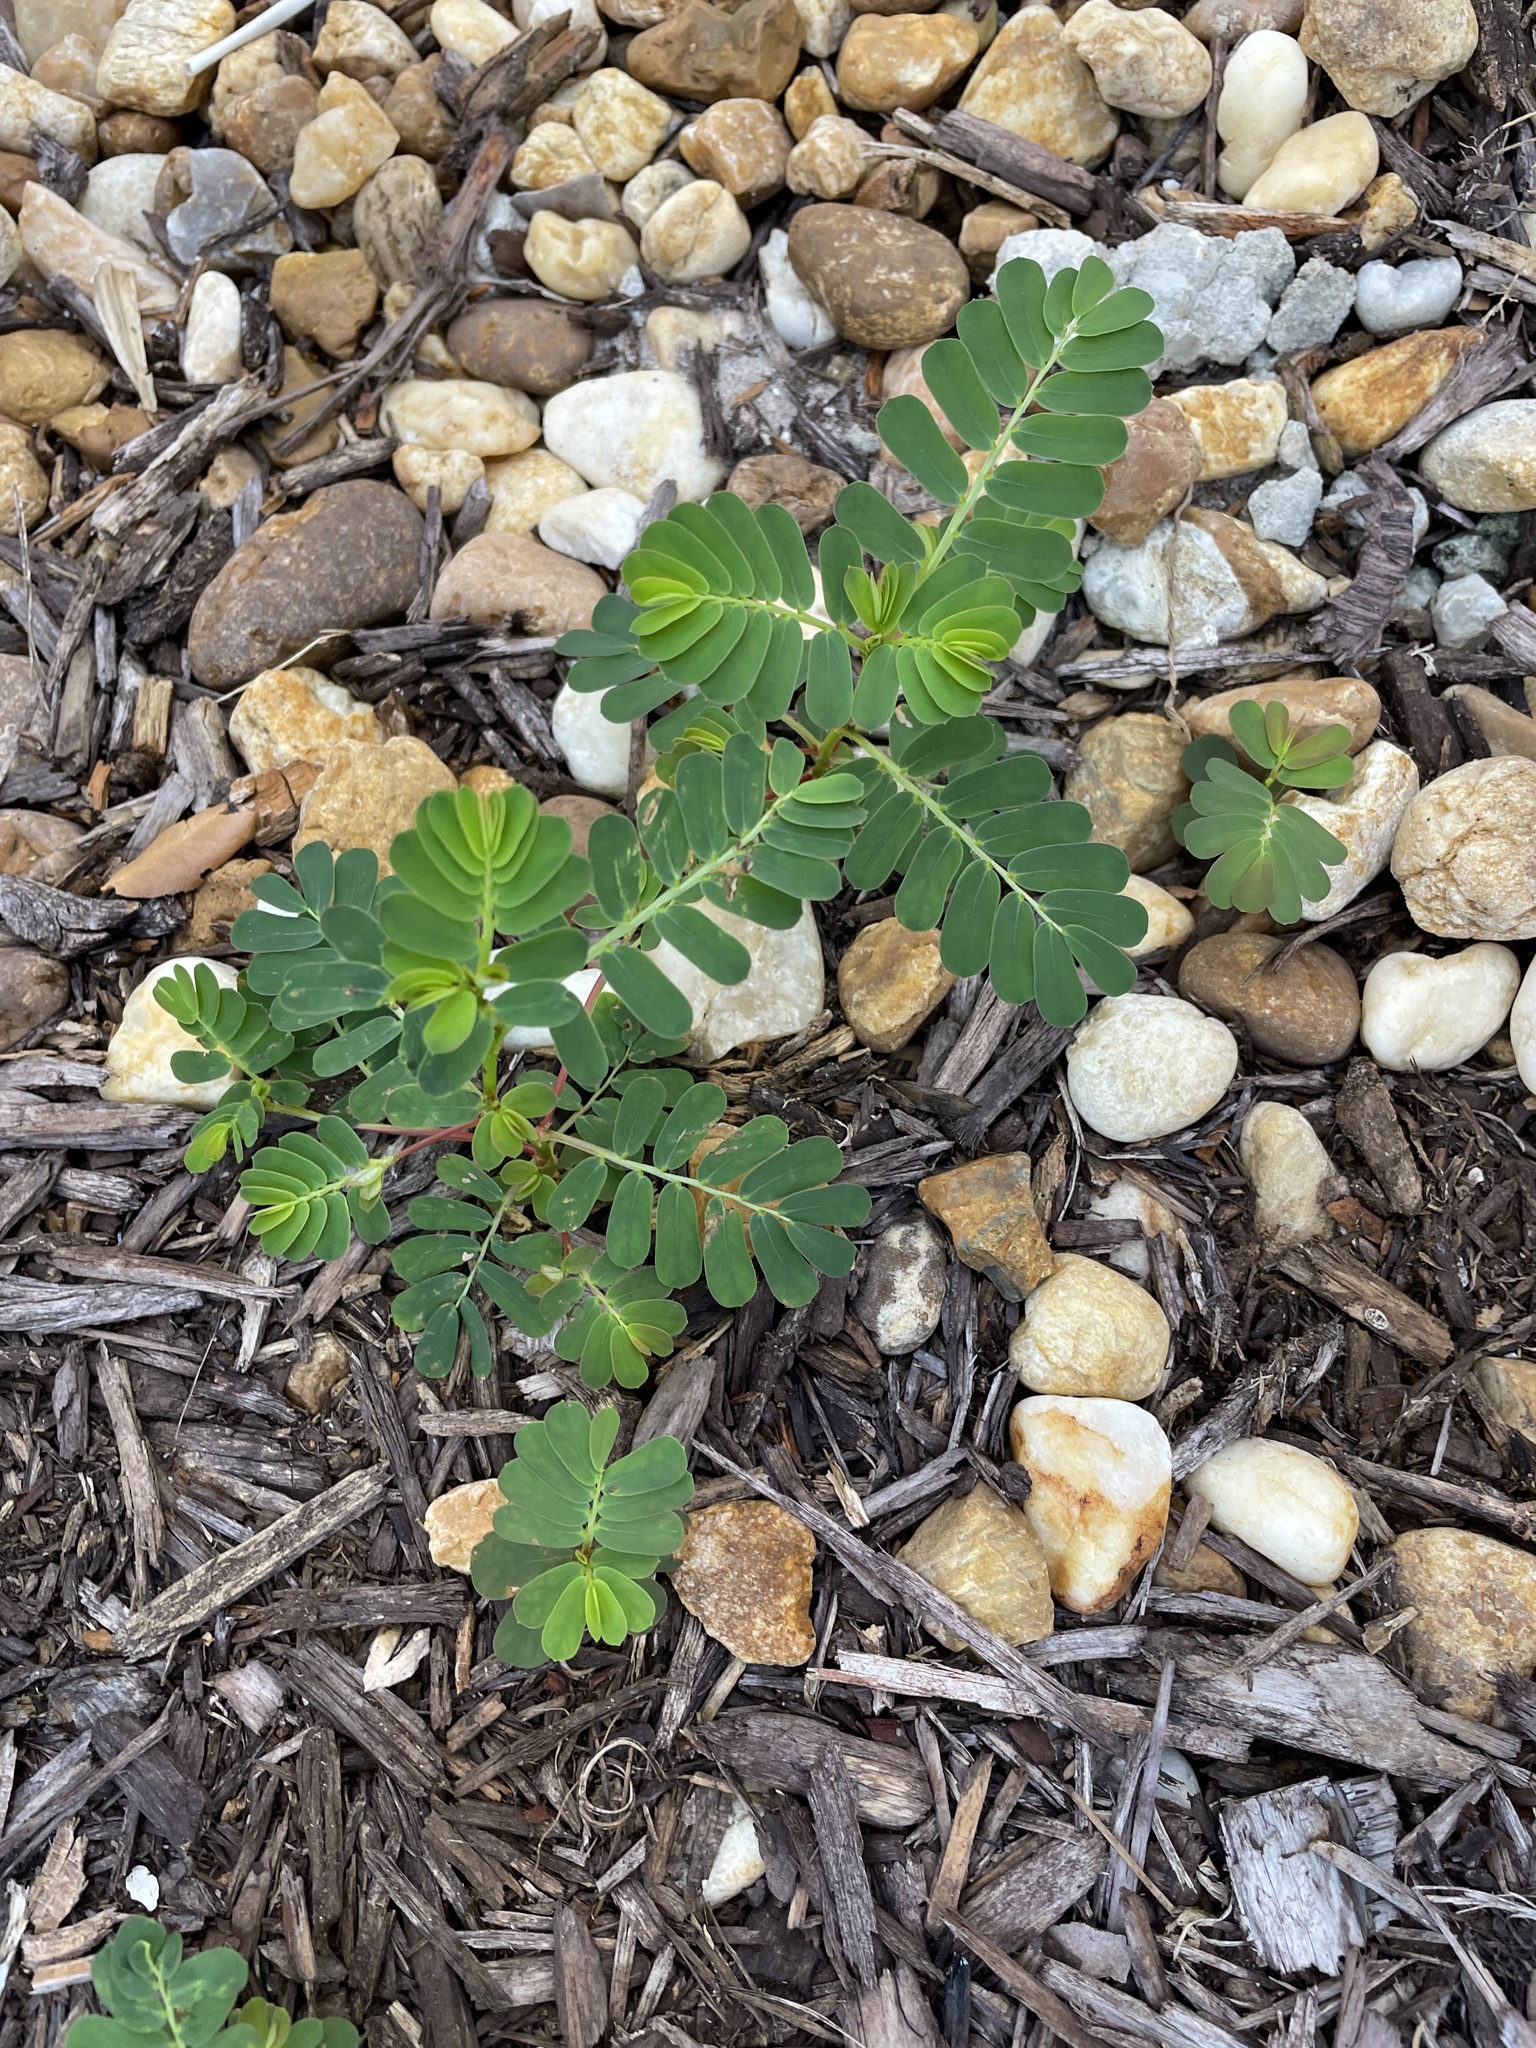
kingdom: Plantae
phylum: Tracheophyta
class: Magnoliopsida
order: Malpighiales
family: Phyllanthaceae
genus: Phyllanthus
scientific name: Phyllanthus urinaria
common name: Chamber bitter
